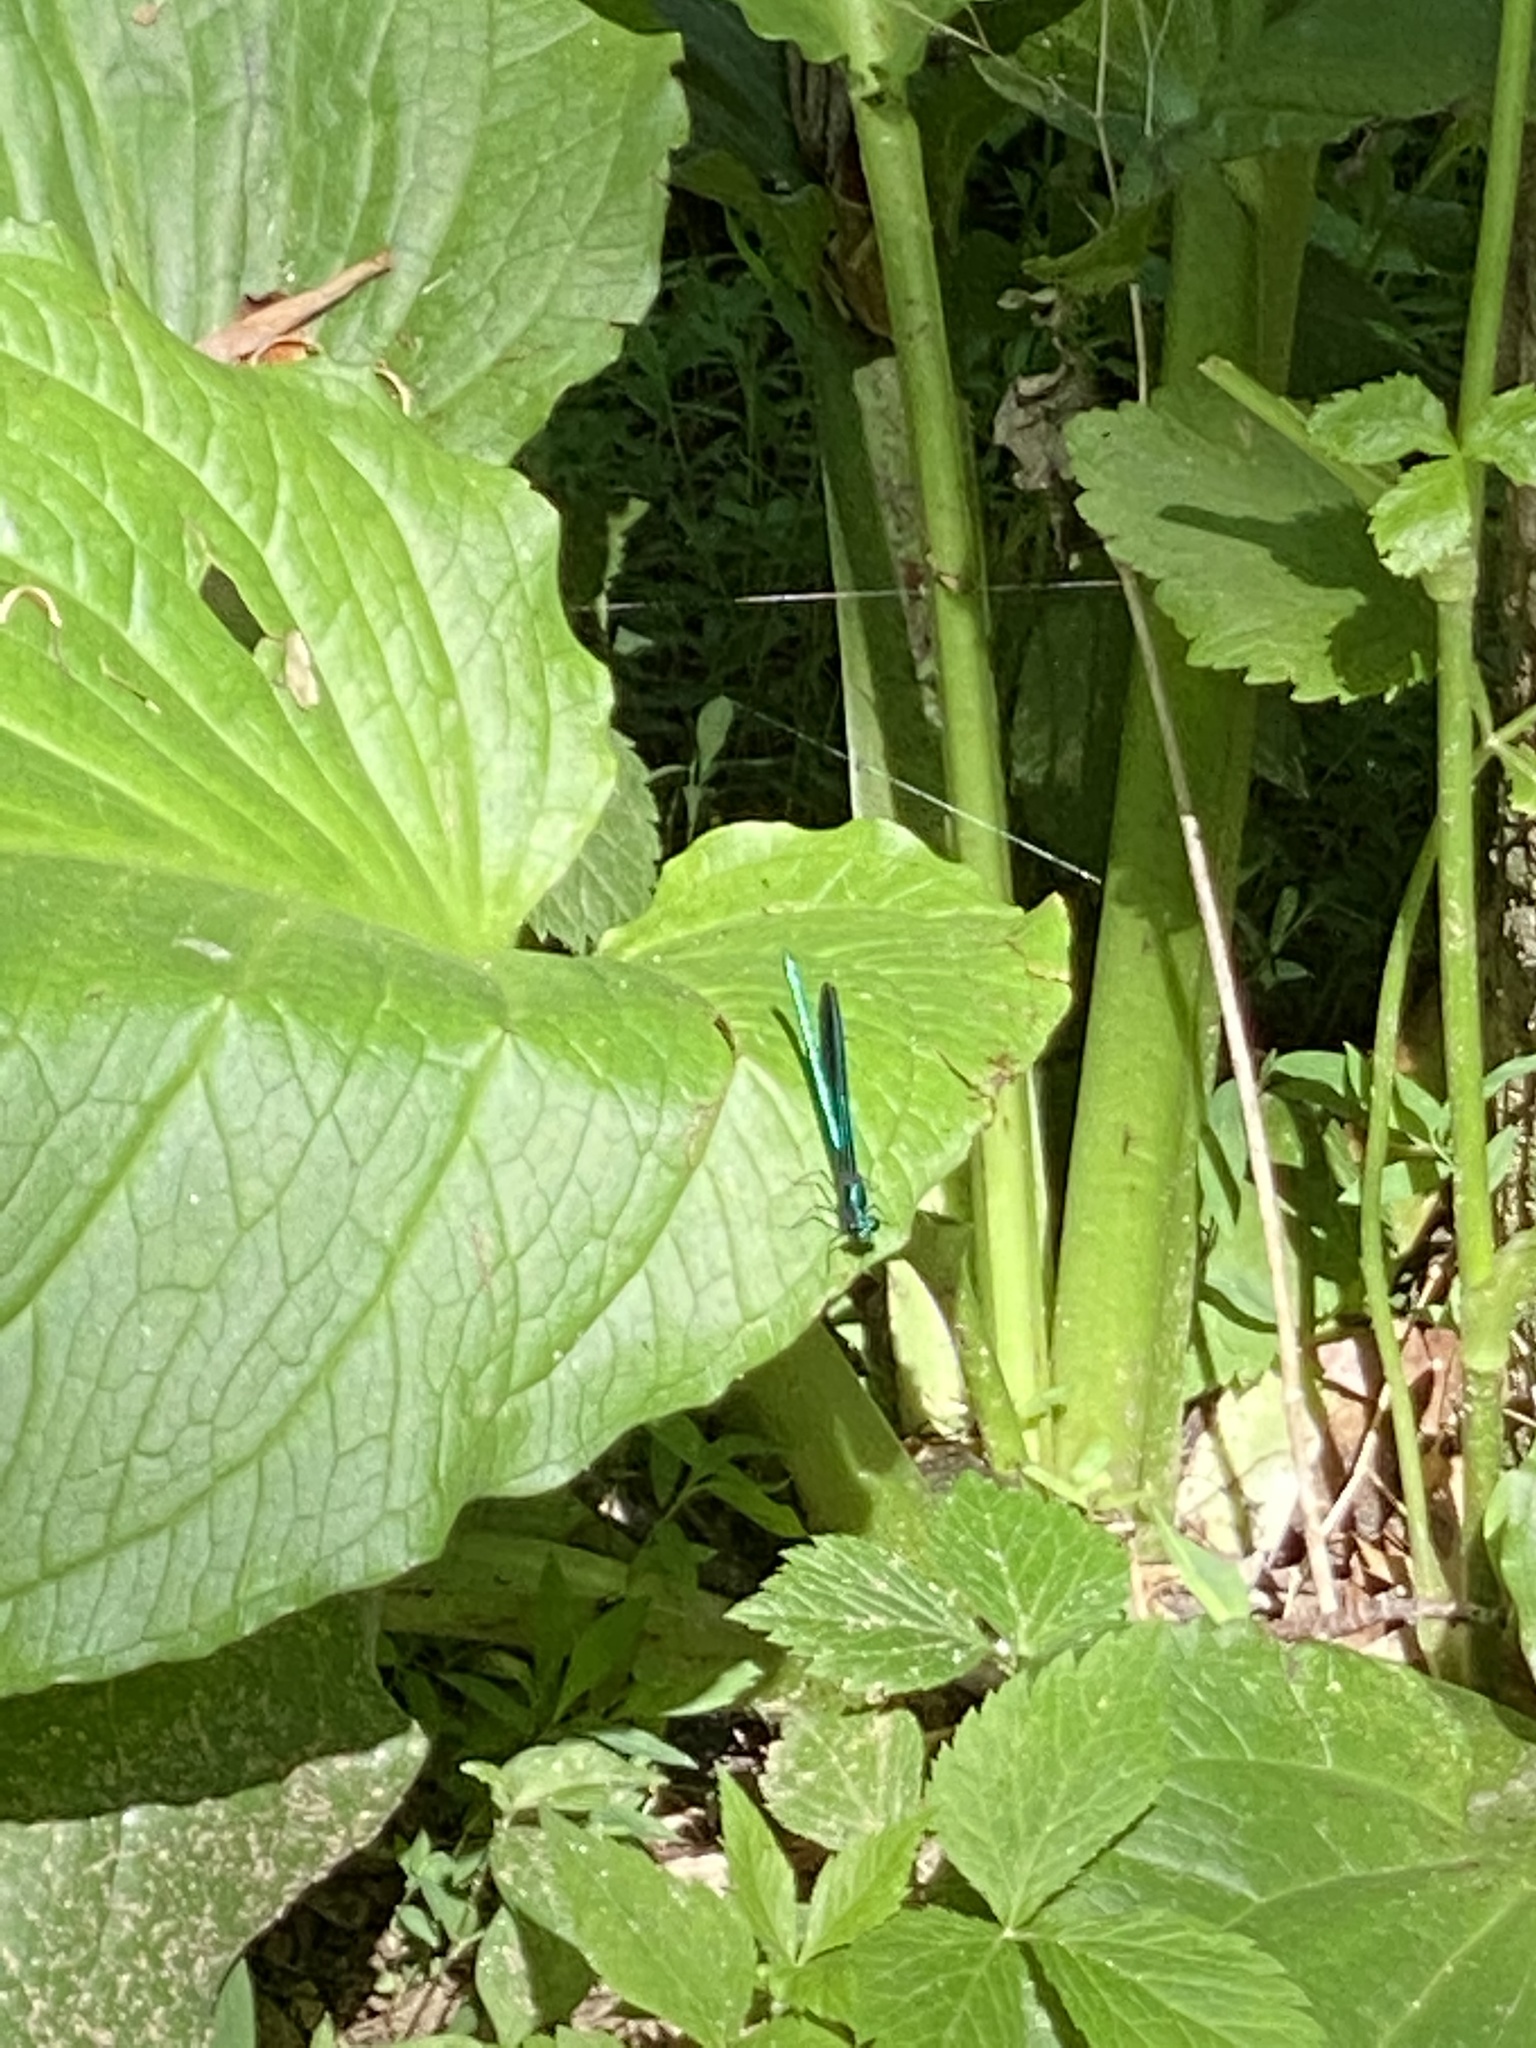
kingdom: Animalia
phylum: Arthropoda
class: Insecta
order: Odonata
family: Calopterygidae
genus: Calopteryx
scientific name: Calopteryx maculata
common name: Ebony jewelwing
